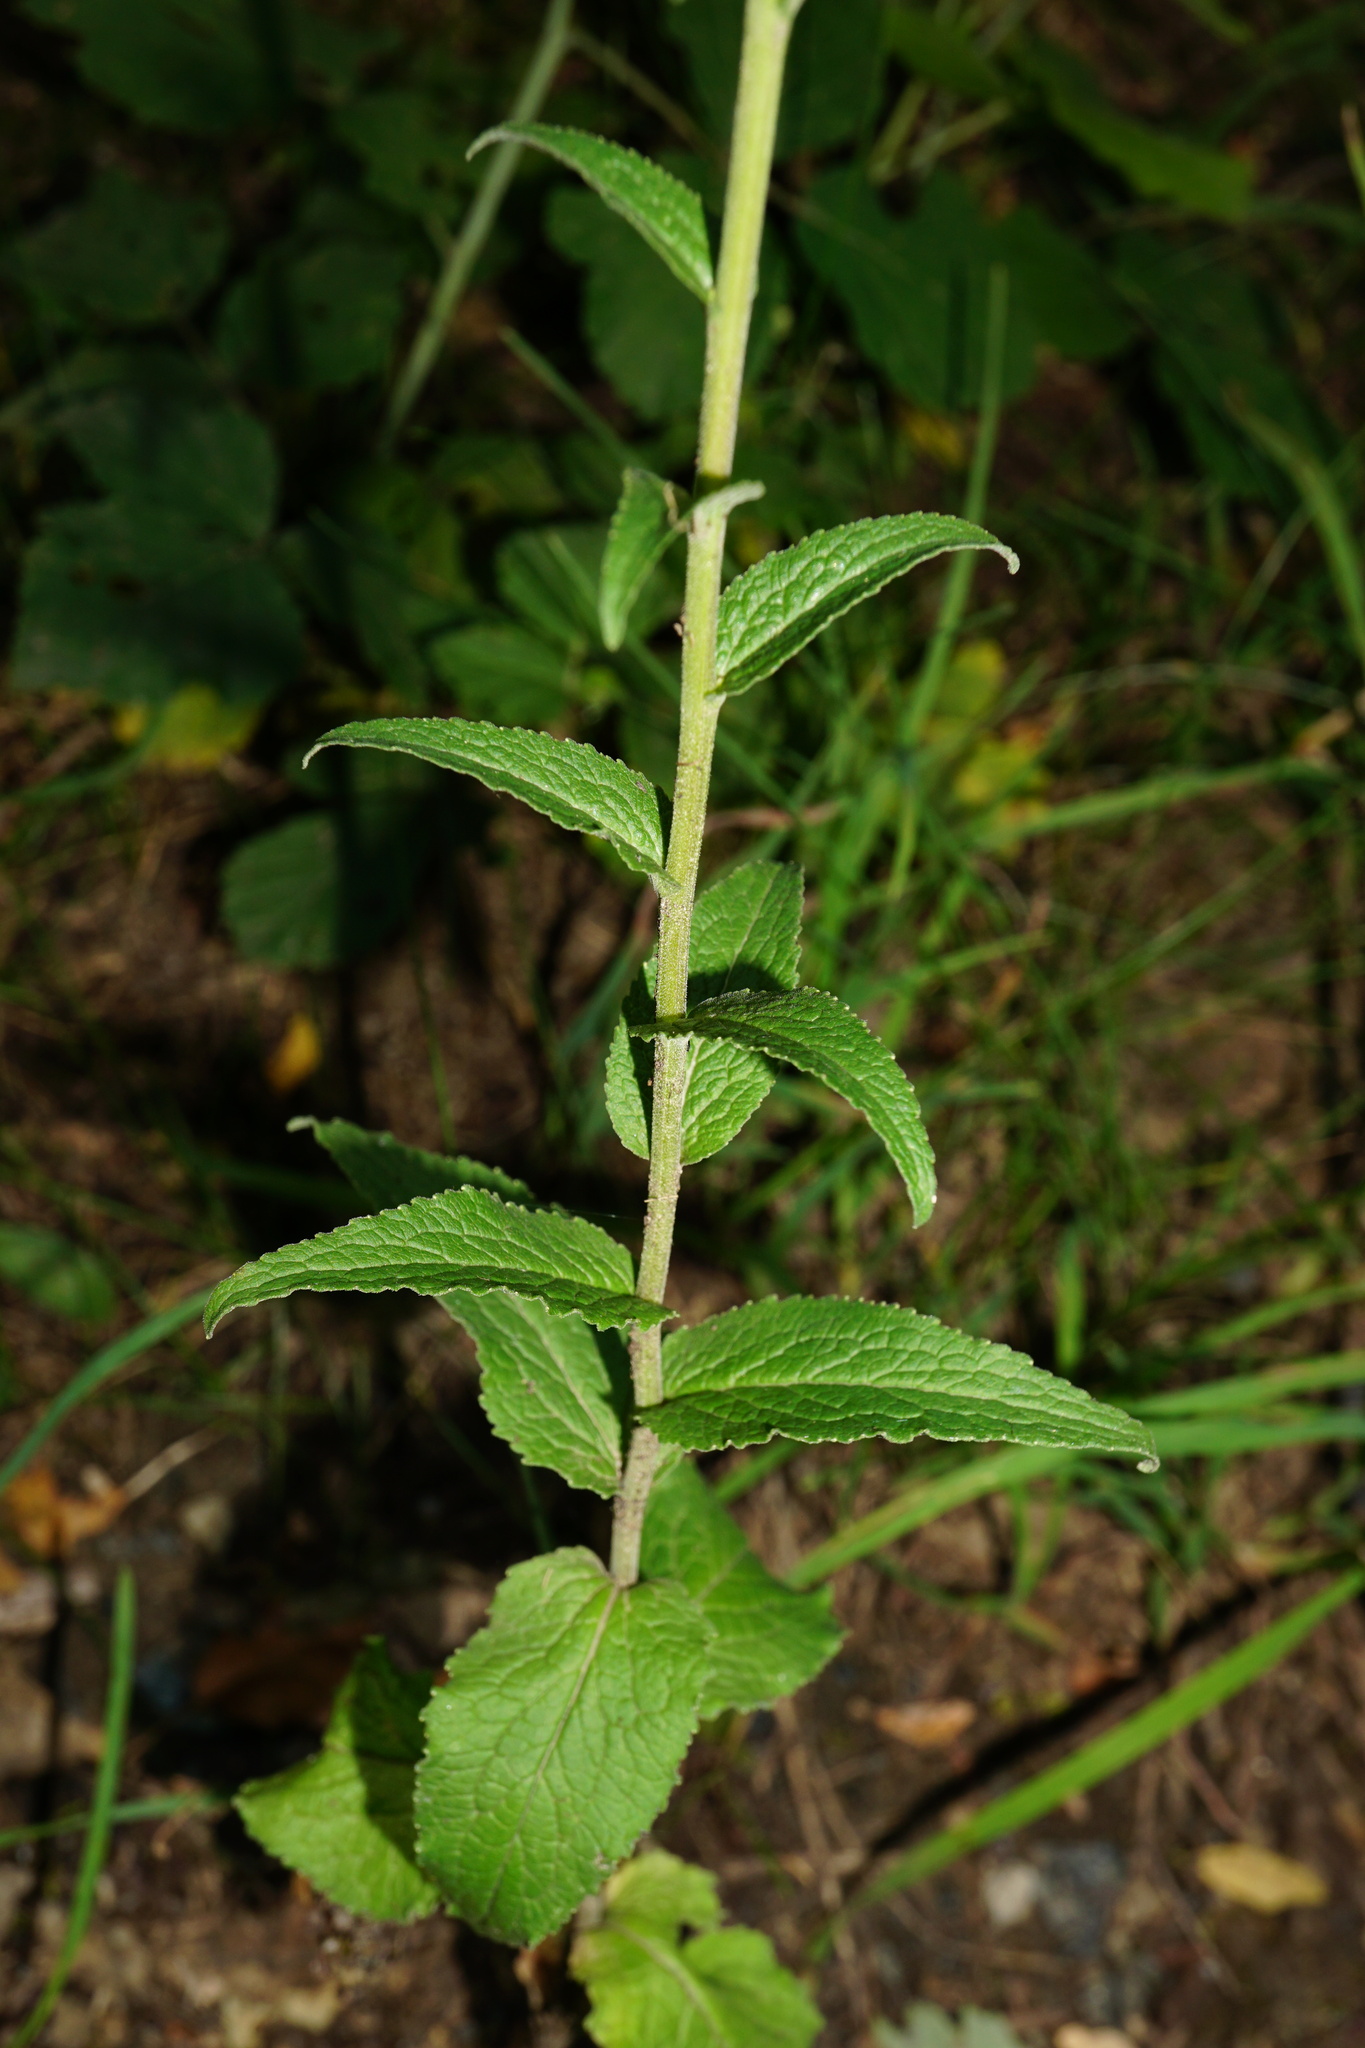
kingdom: Plantae
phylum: Tracheophyta
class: Magnoliopsida
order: Asterales
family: Campanulaceae
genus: Campanula
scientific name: Campanula bononiensis
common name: Pale bellflower
